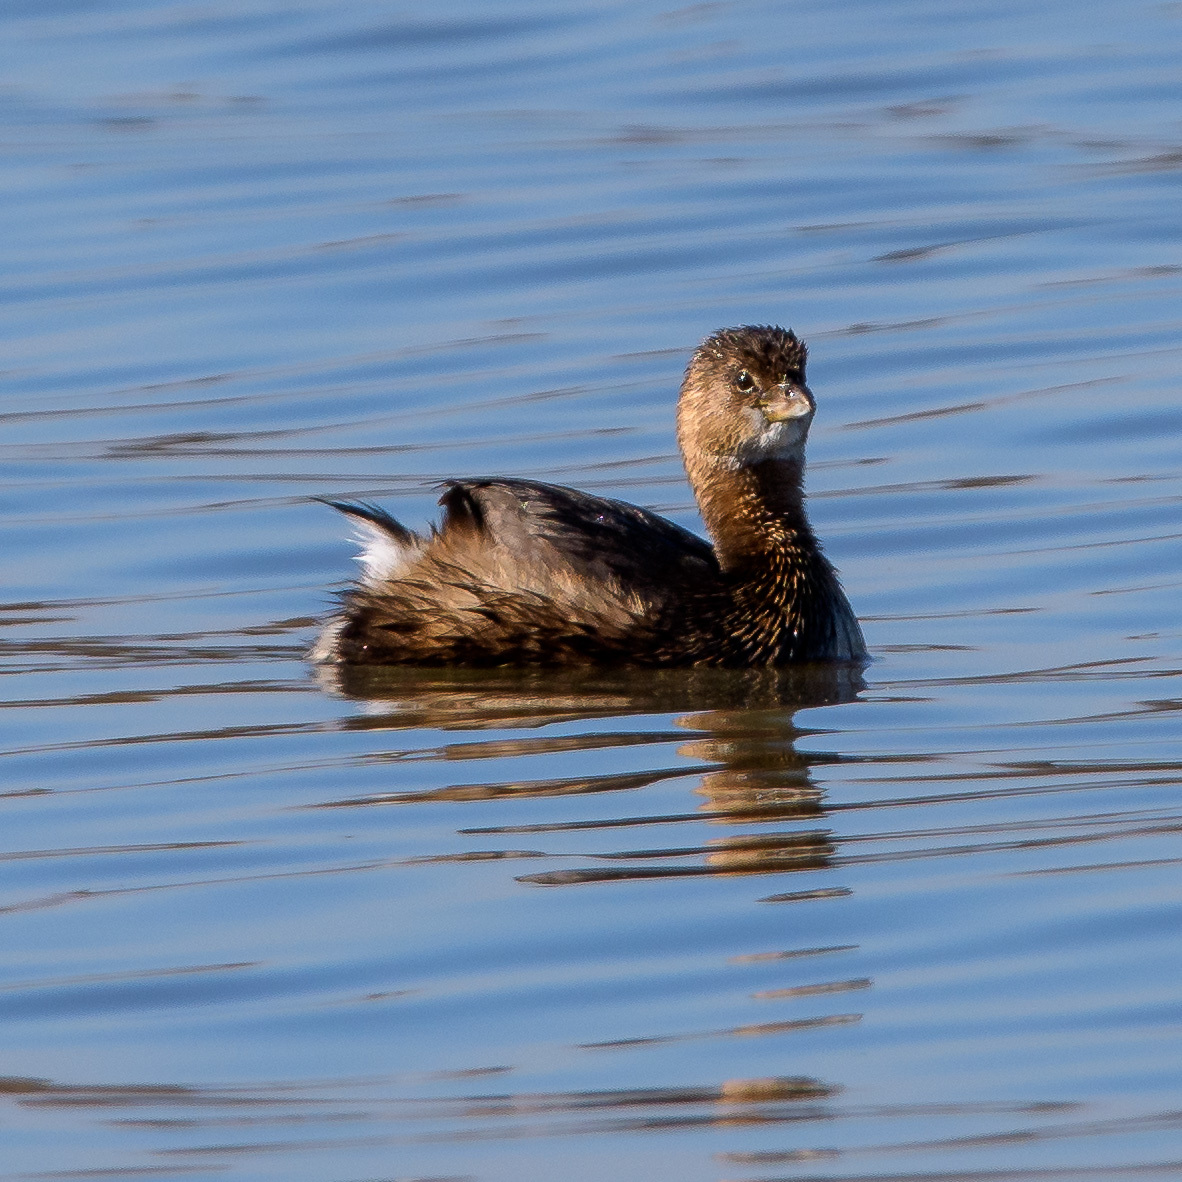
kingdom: Animalia
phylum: Chordata
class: Aves
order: Podicipediformes
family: Podicipedidae
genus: Podilymbus
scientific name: Podilymbus podiceps
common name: Pied-billed grebe
